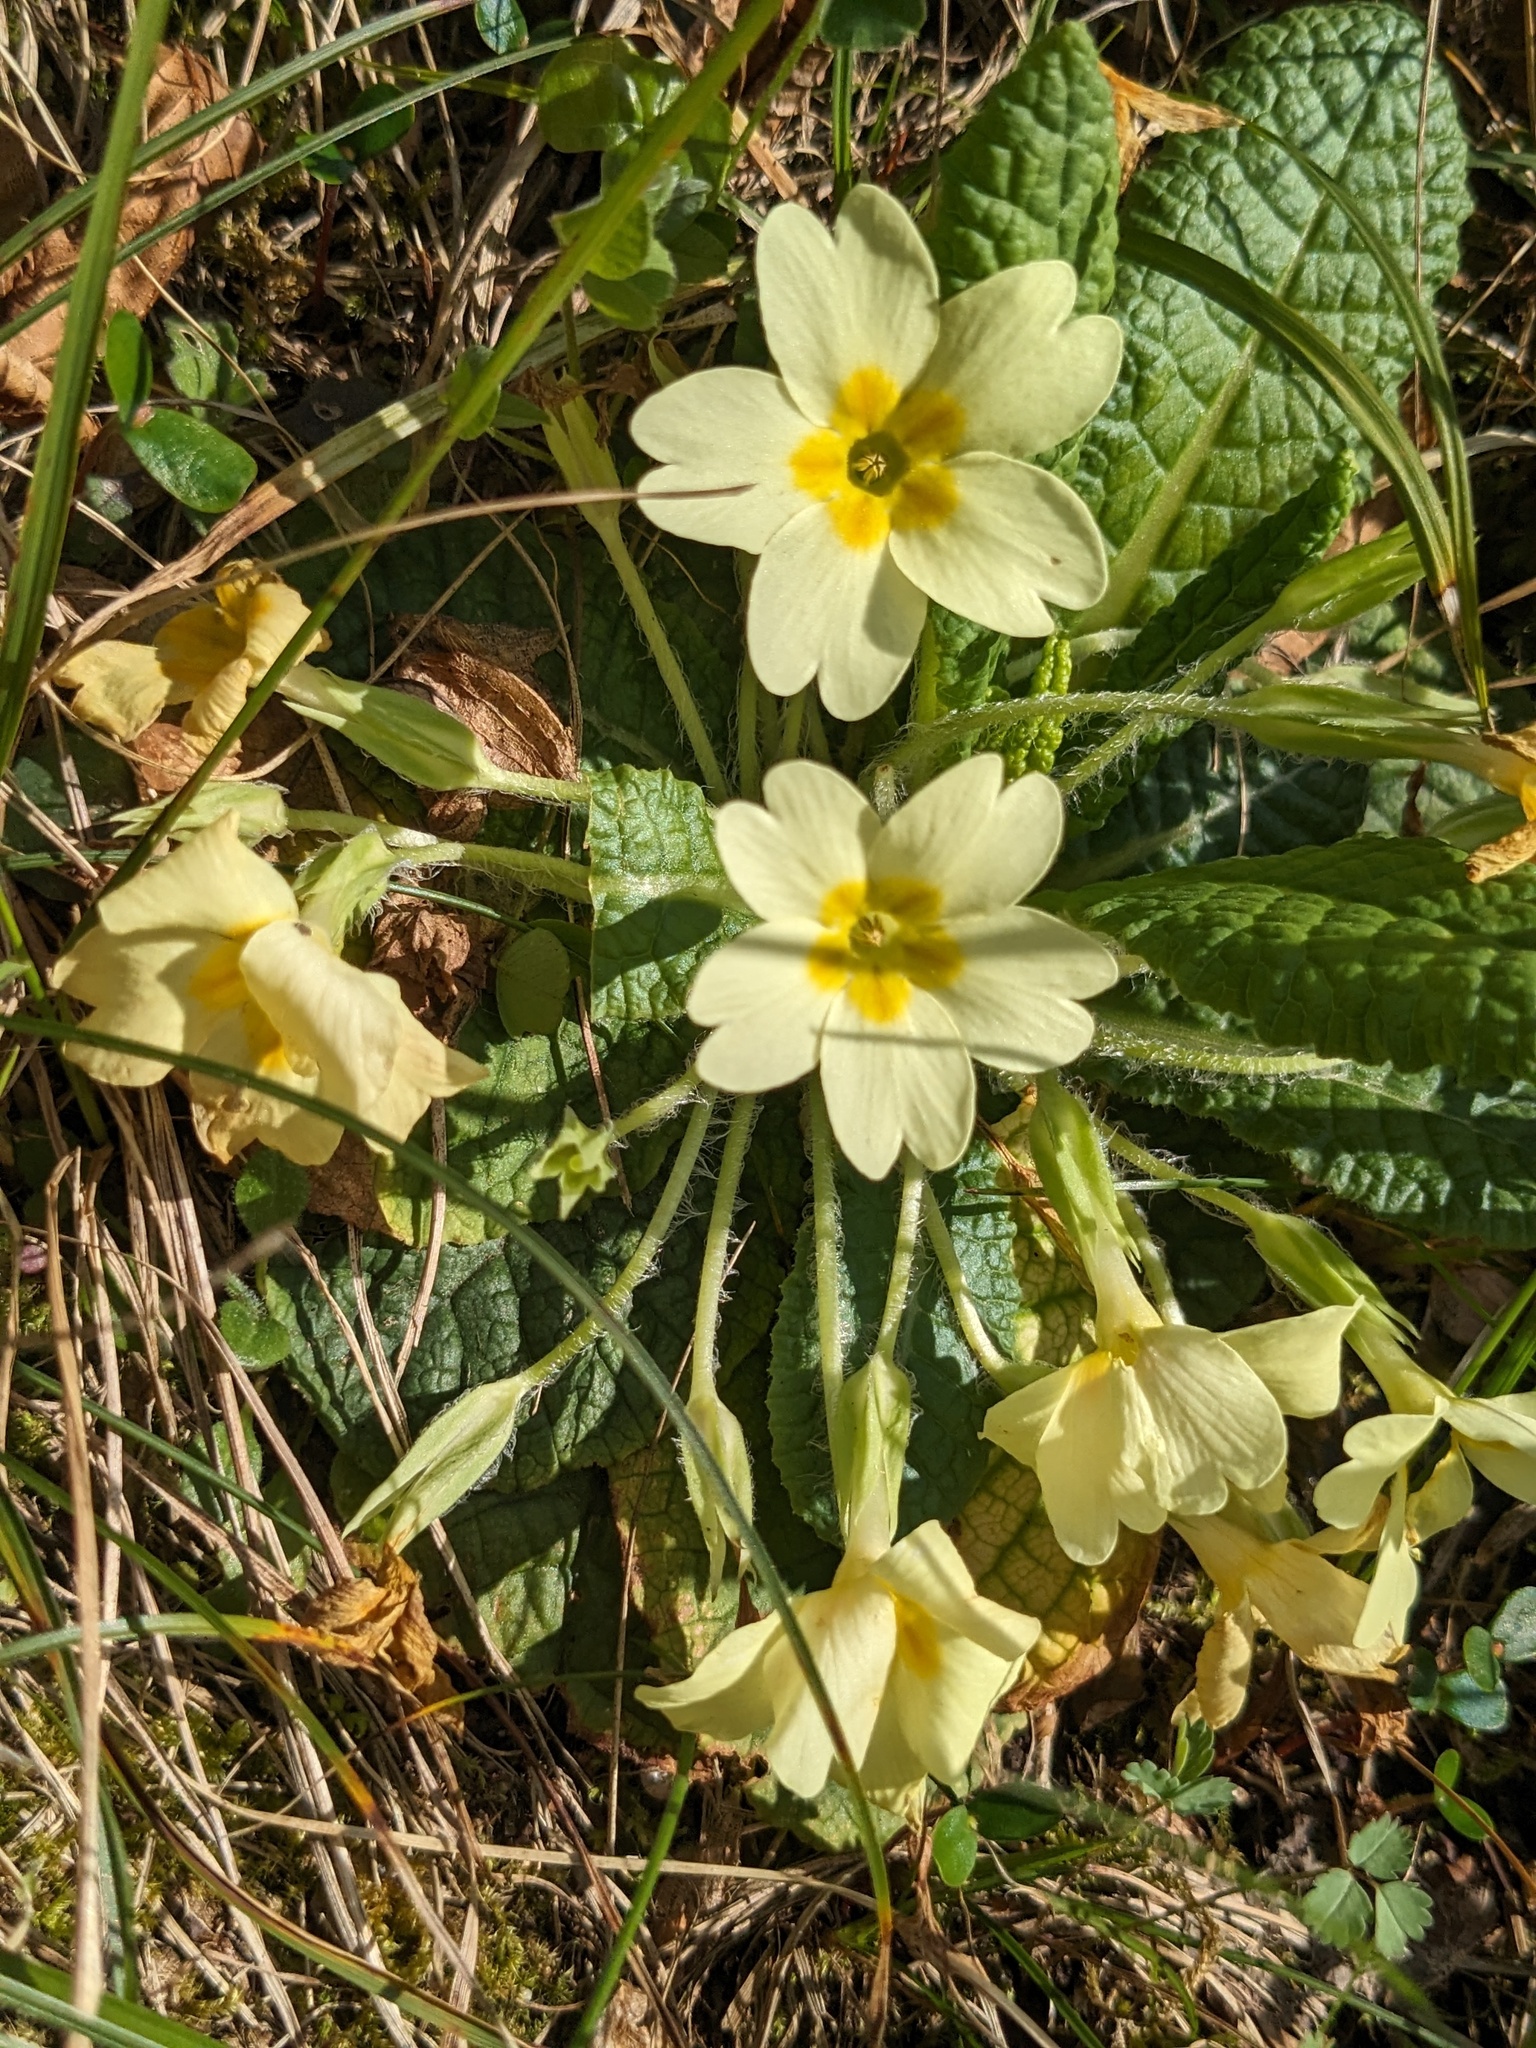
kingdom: Plantae
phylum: Tracheophyta
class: Magnoliopsida
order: Ericales
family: Primulaceae
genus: Primula
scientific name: Primula vulgaris
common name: Primrose
